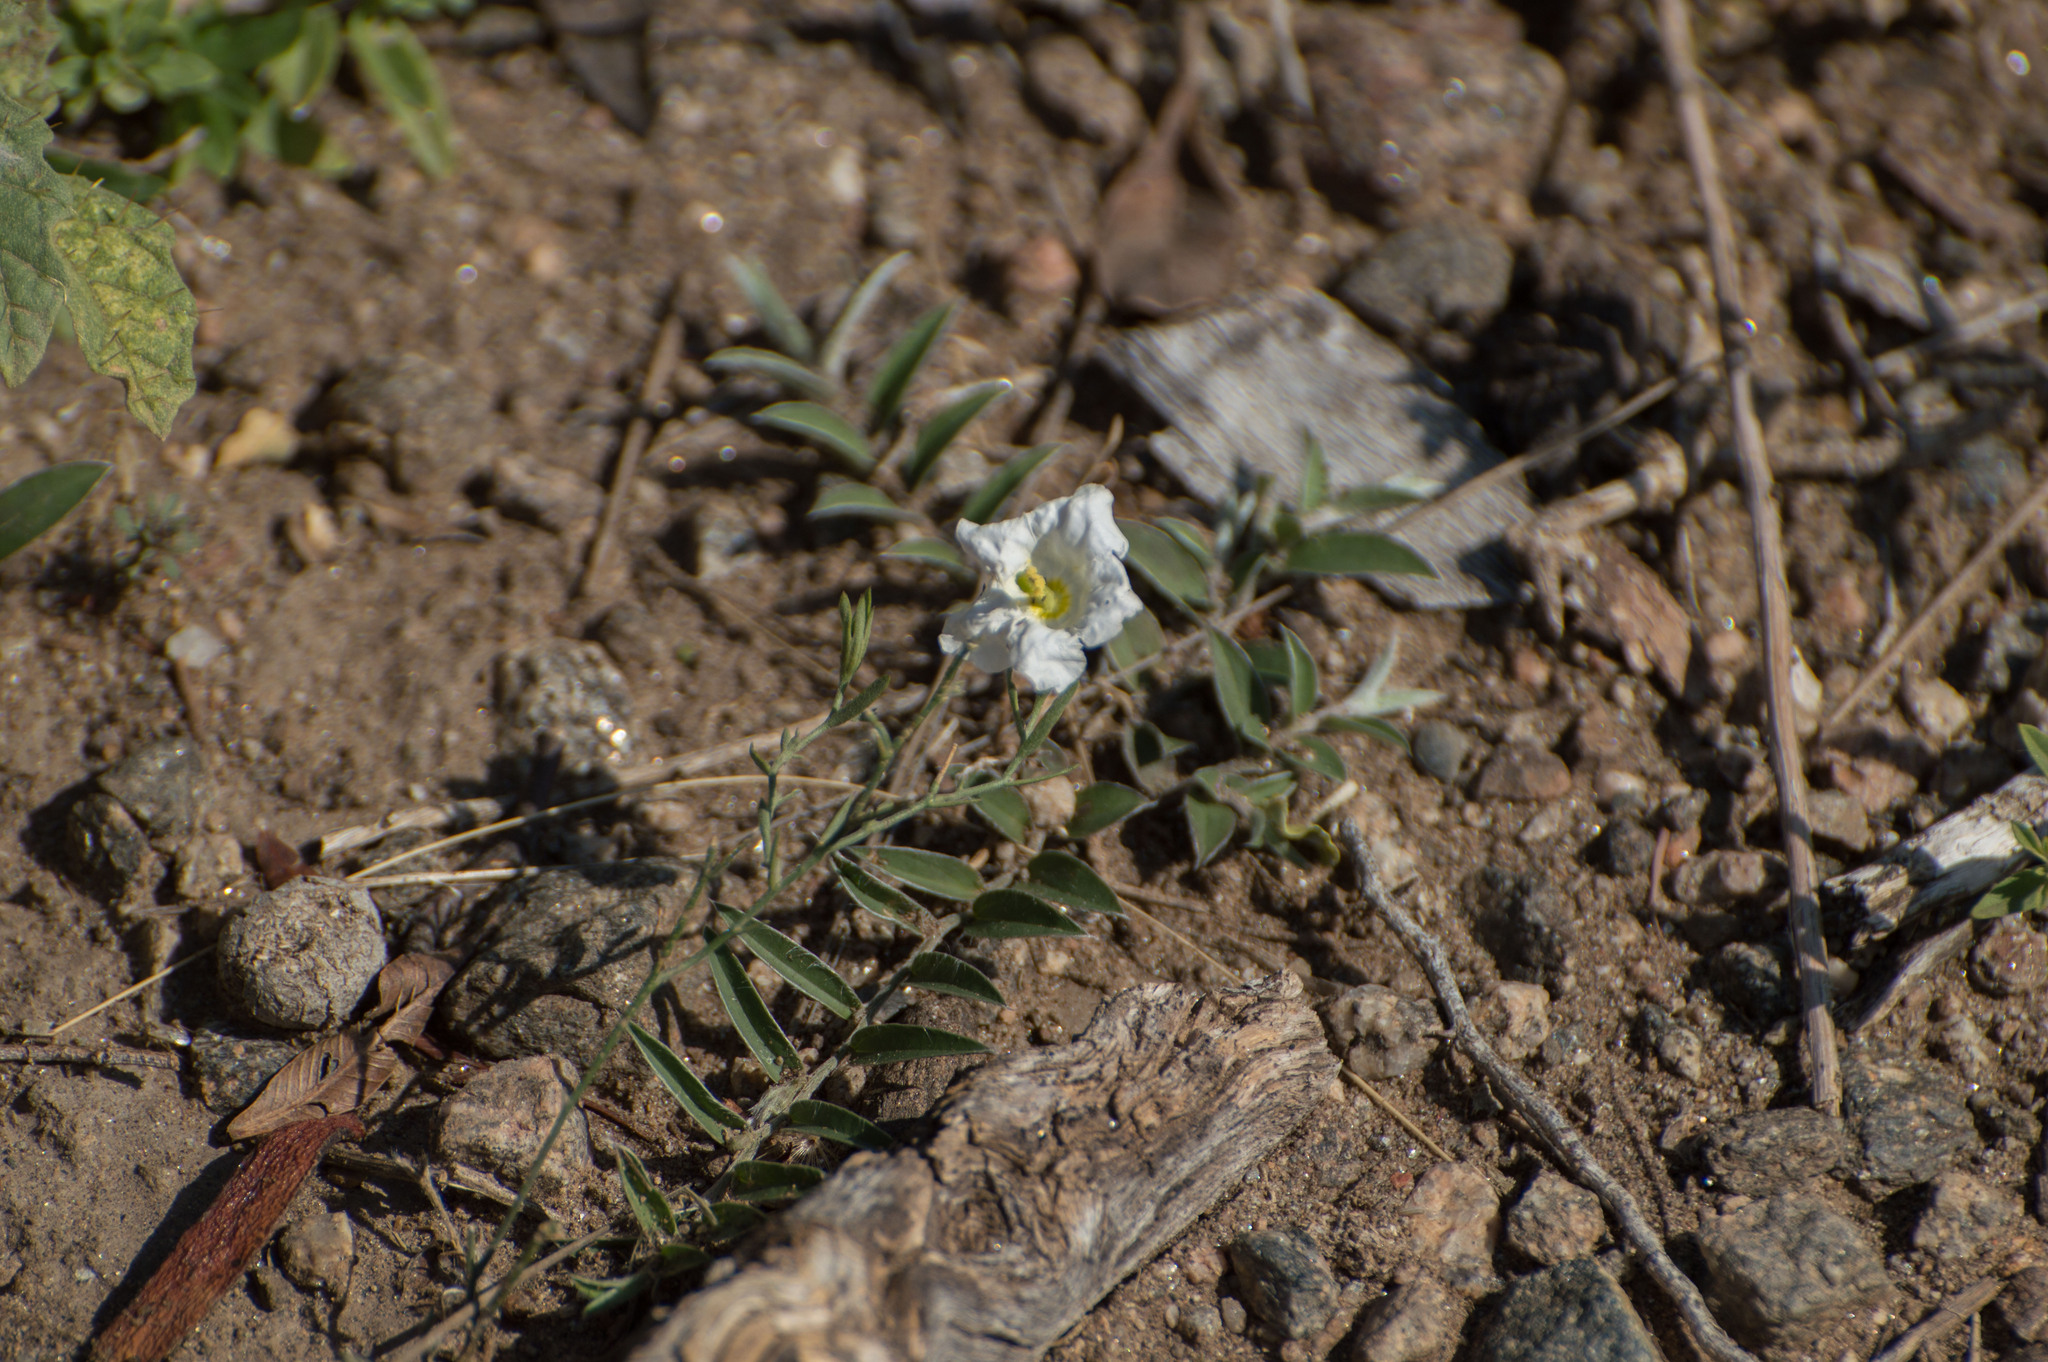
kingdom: Plantae
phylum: Tracheophyta
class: Magnoliopsida
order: Solanales
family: Convolvulaceae
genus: Evolvulus
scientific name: Evolvulus sericeus
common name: Blue dots
